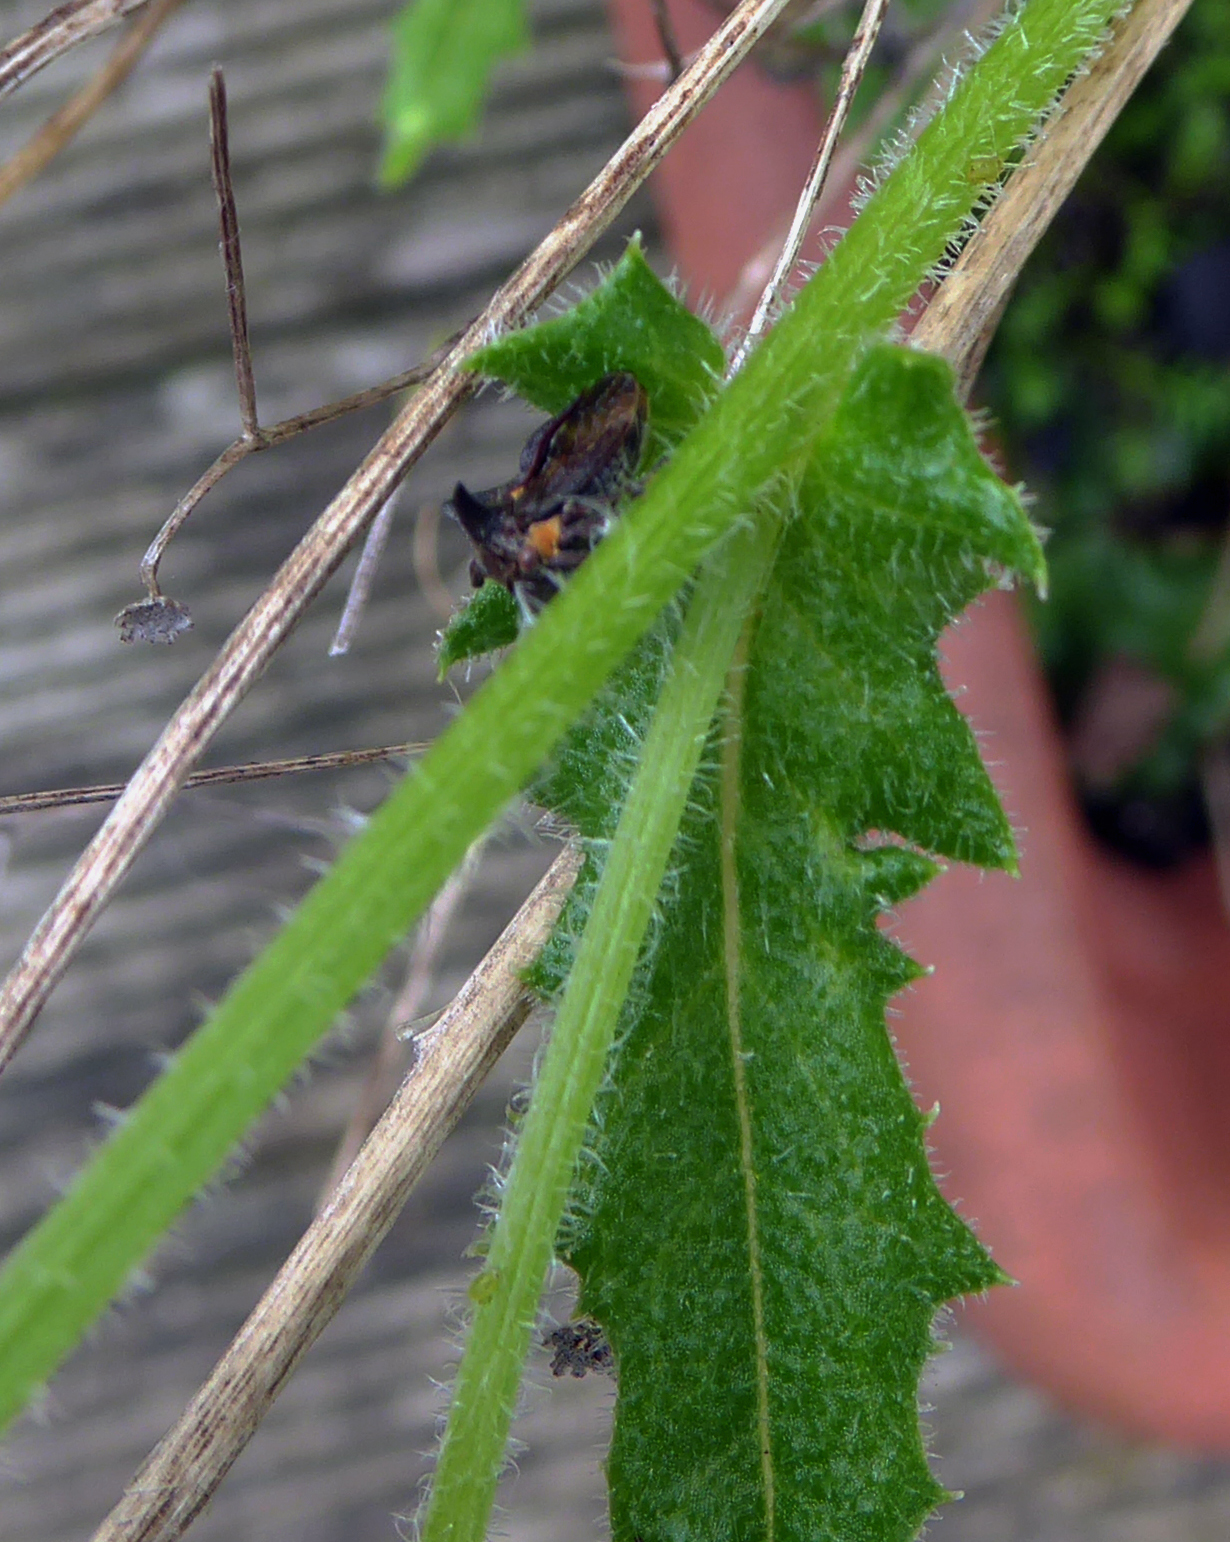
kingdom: Animalia
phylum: Arthropoda
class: Insecta
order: Hemiptera
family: Membracidae
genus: Acanthuchus
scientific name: Acanthuchus trispinifer
